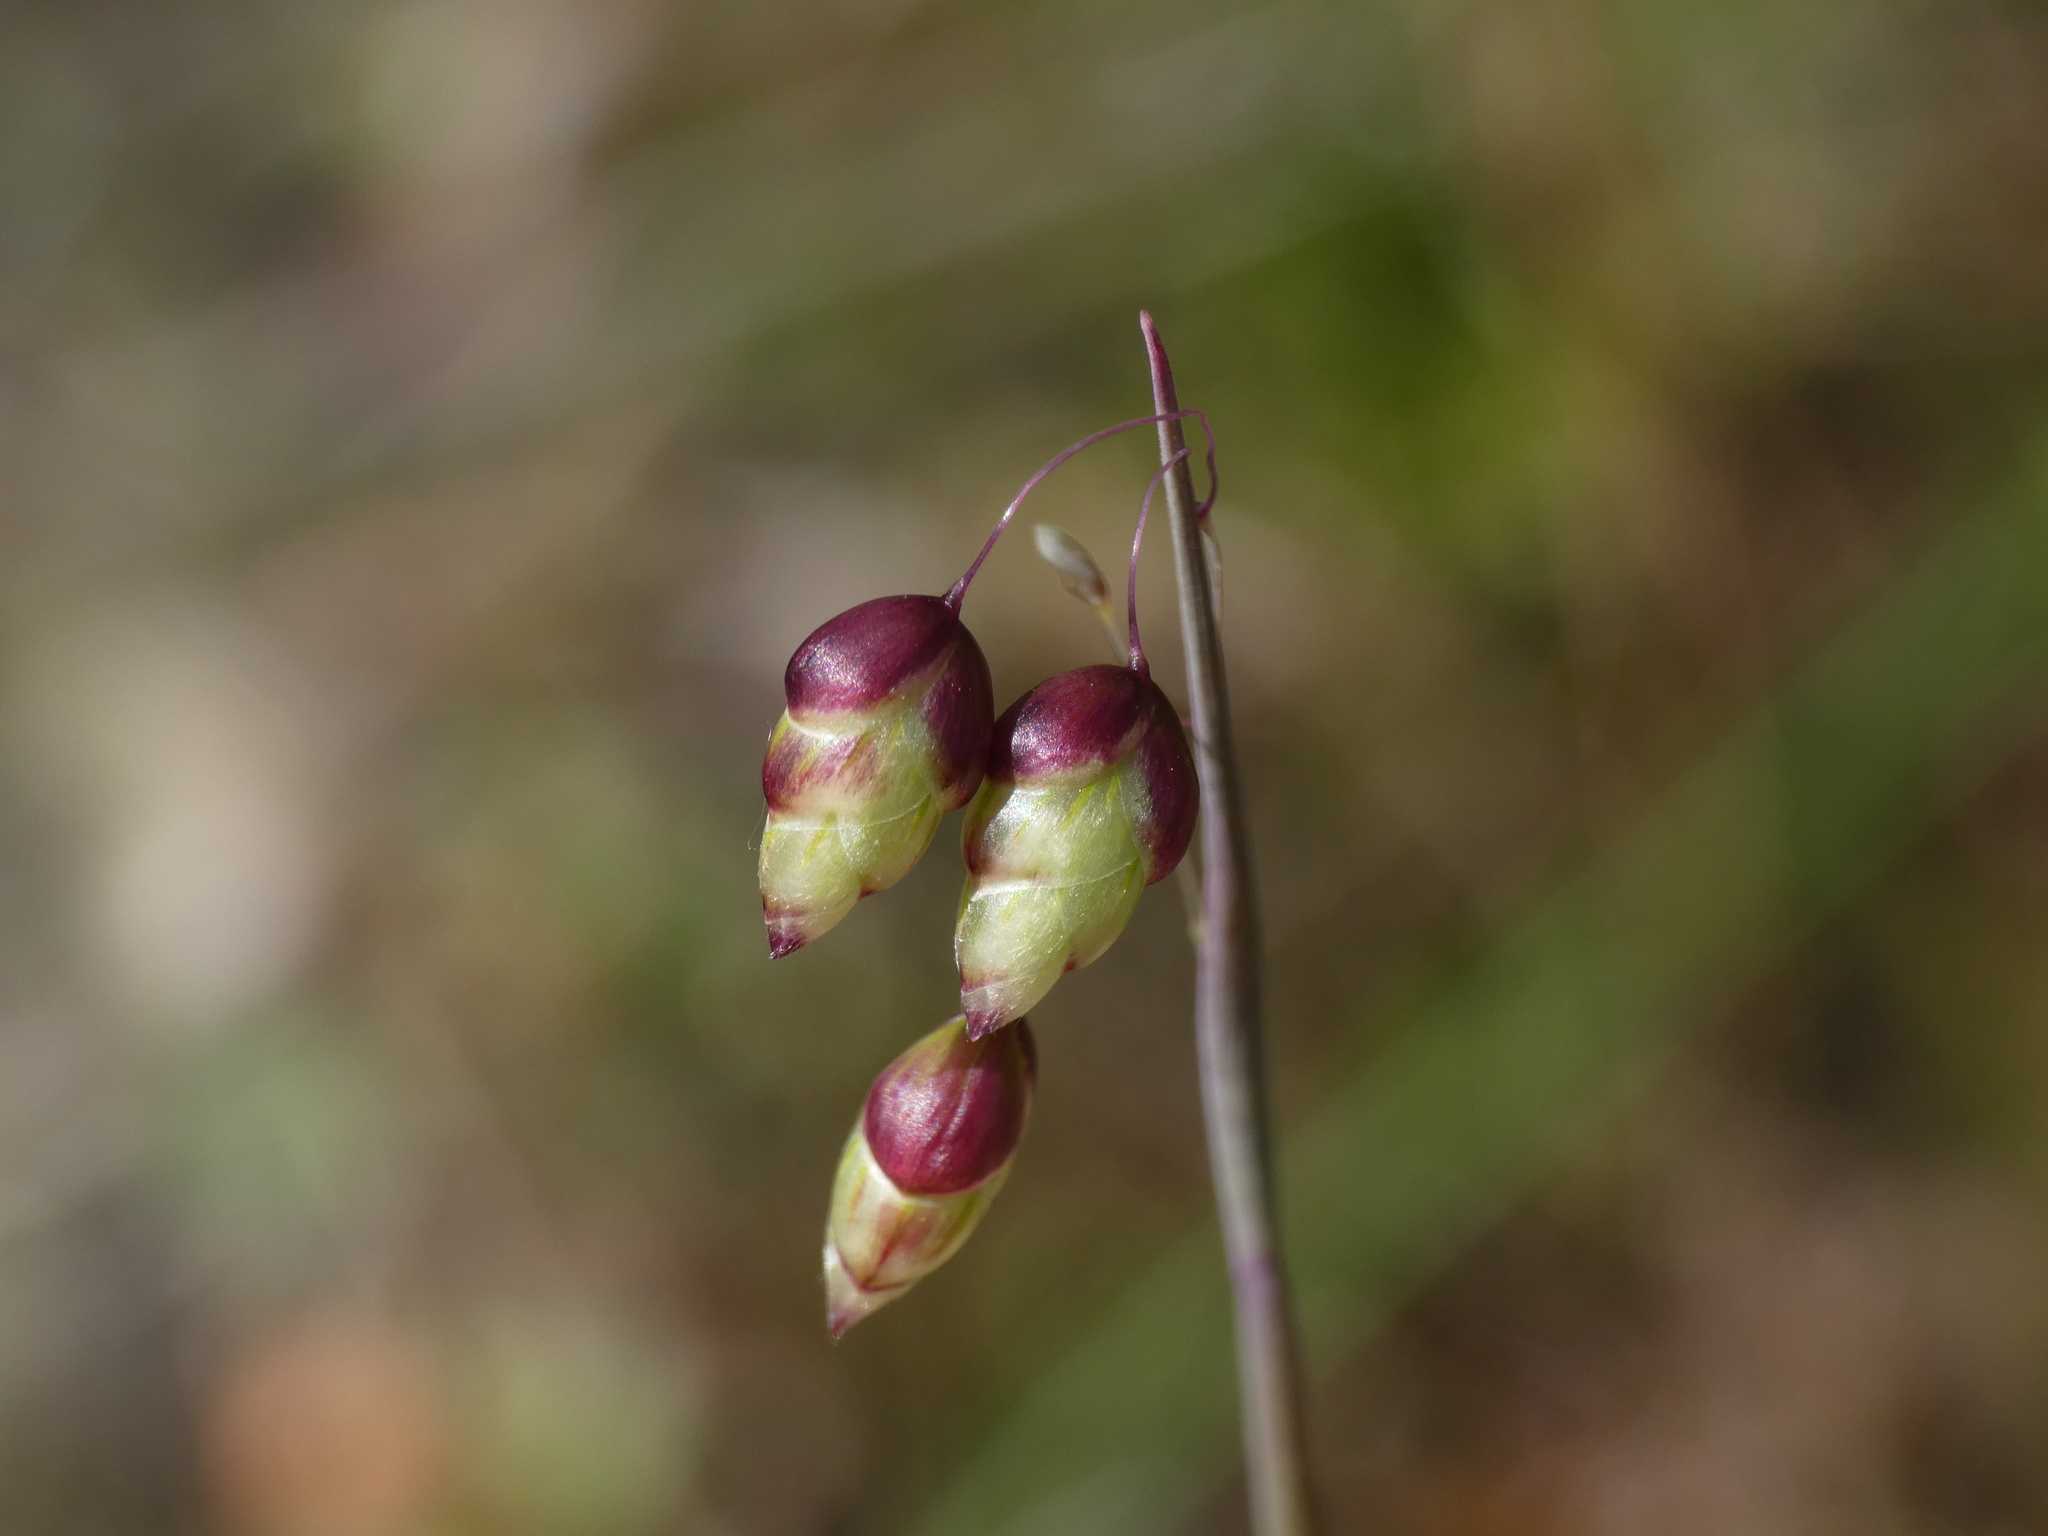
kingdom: Plantae
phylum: Tracheophyta
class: Liliopsida
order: Poales
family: Poaceae
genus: Briza
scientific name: Briza maxima
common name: Big quakinggrass
